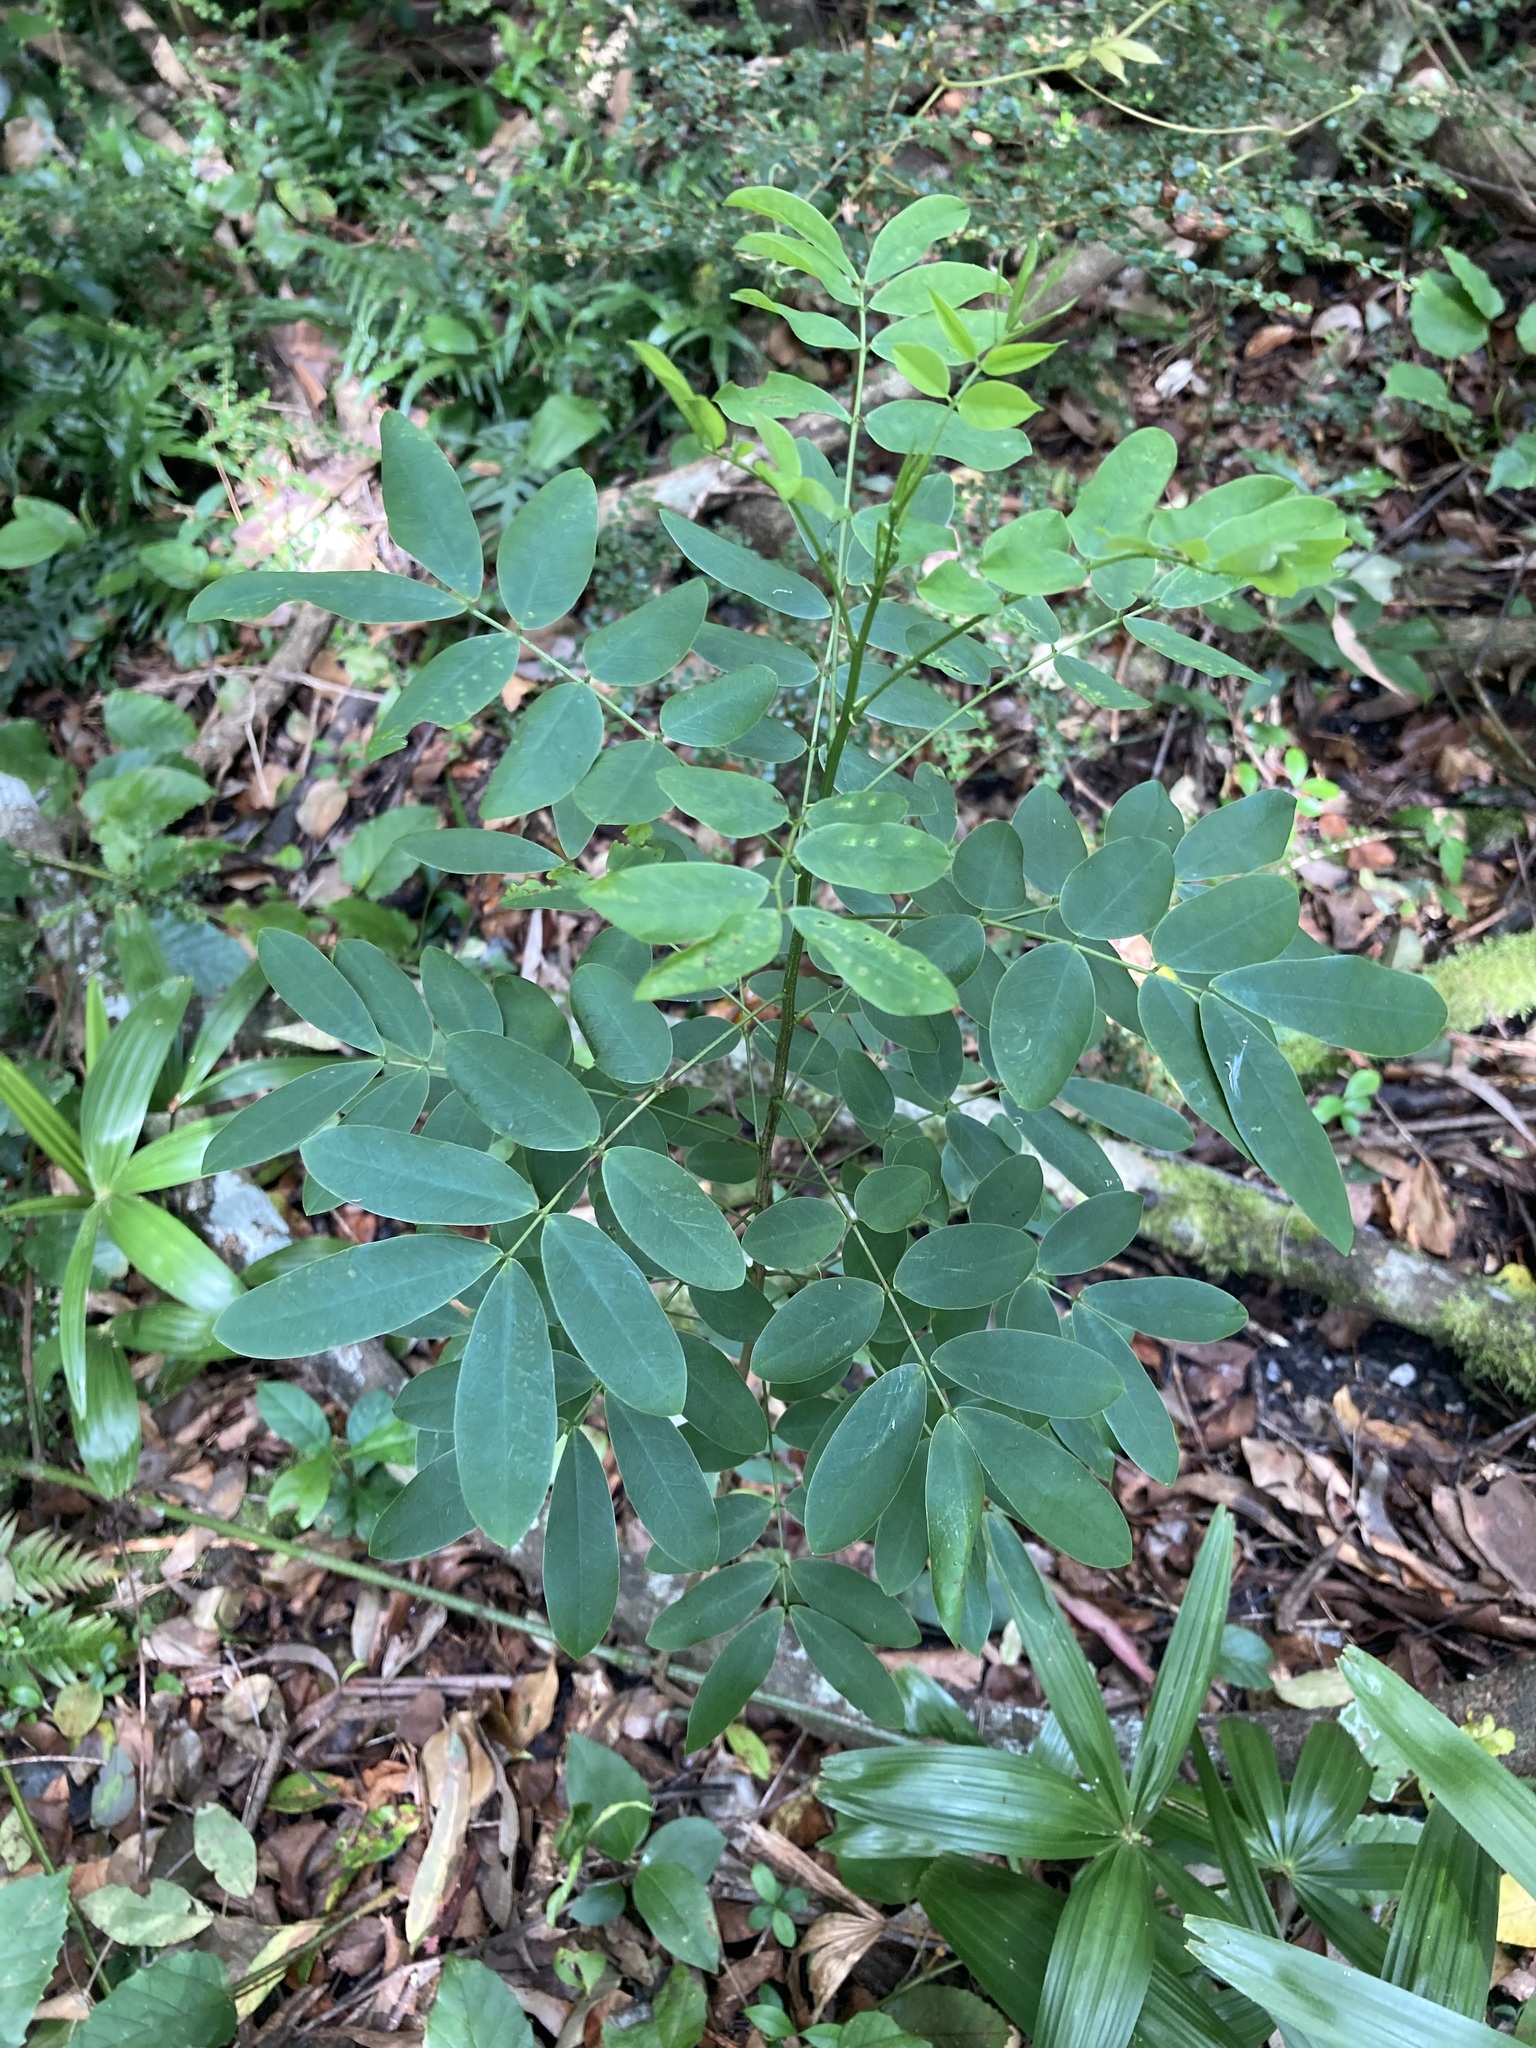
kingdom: Plantae
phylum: Tracheophyta
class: Magnoliopsida
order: Fabales
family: Fabaceae
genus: Senna
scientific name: Senna pendula
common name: Easter cassia
